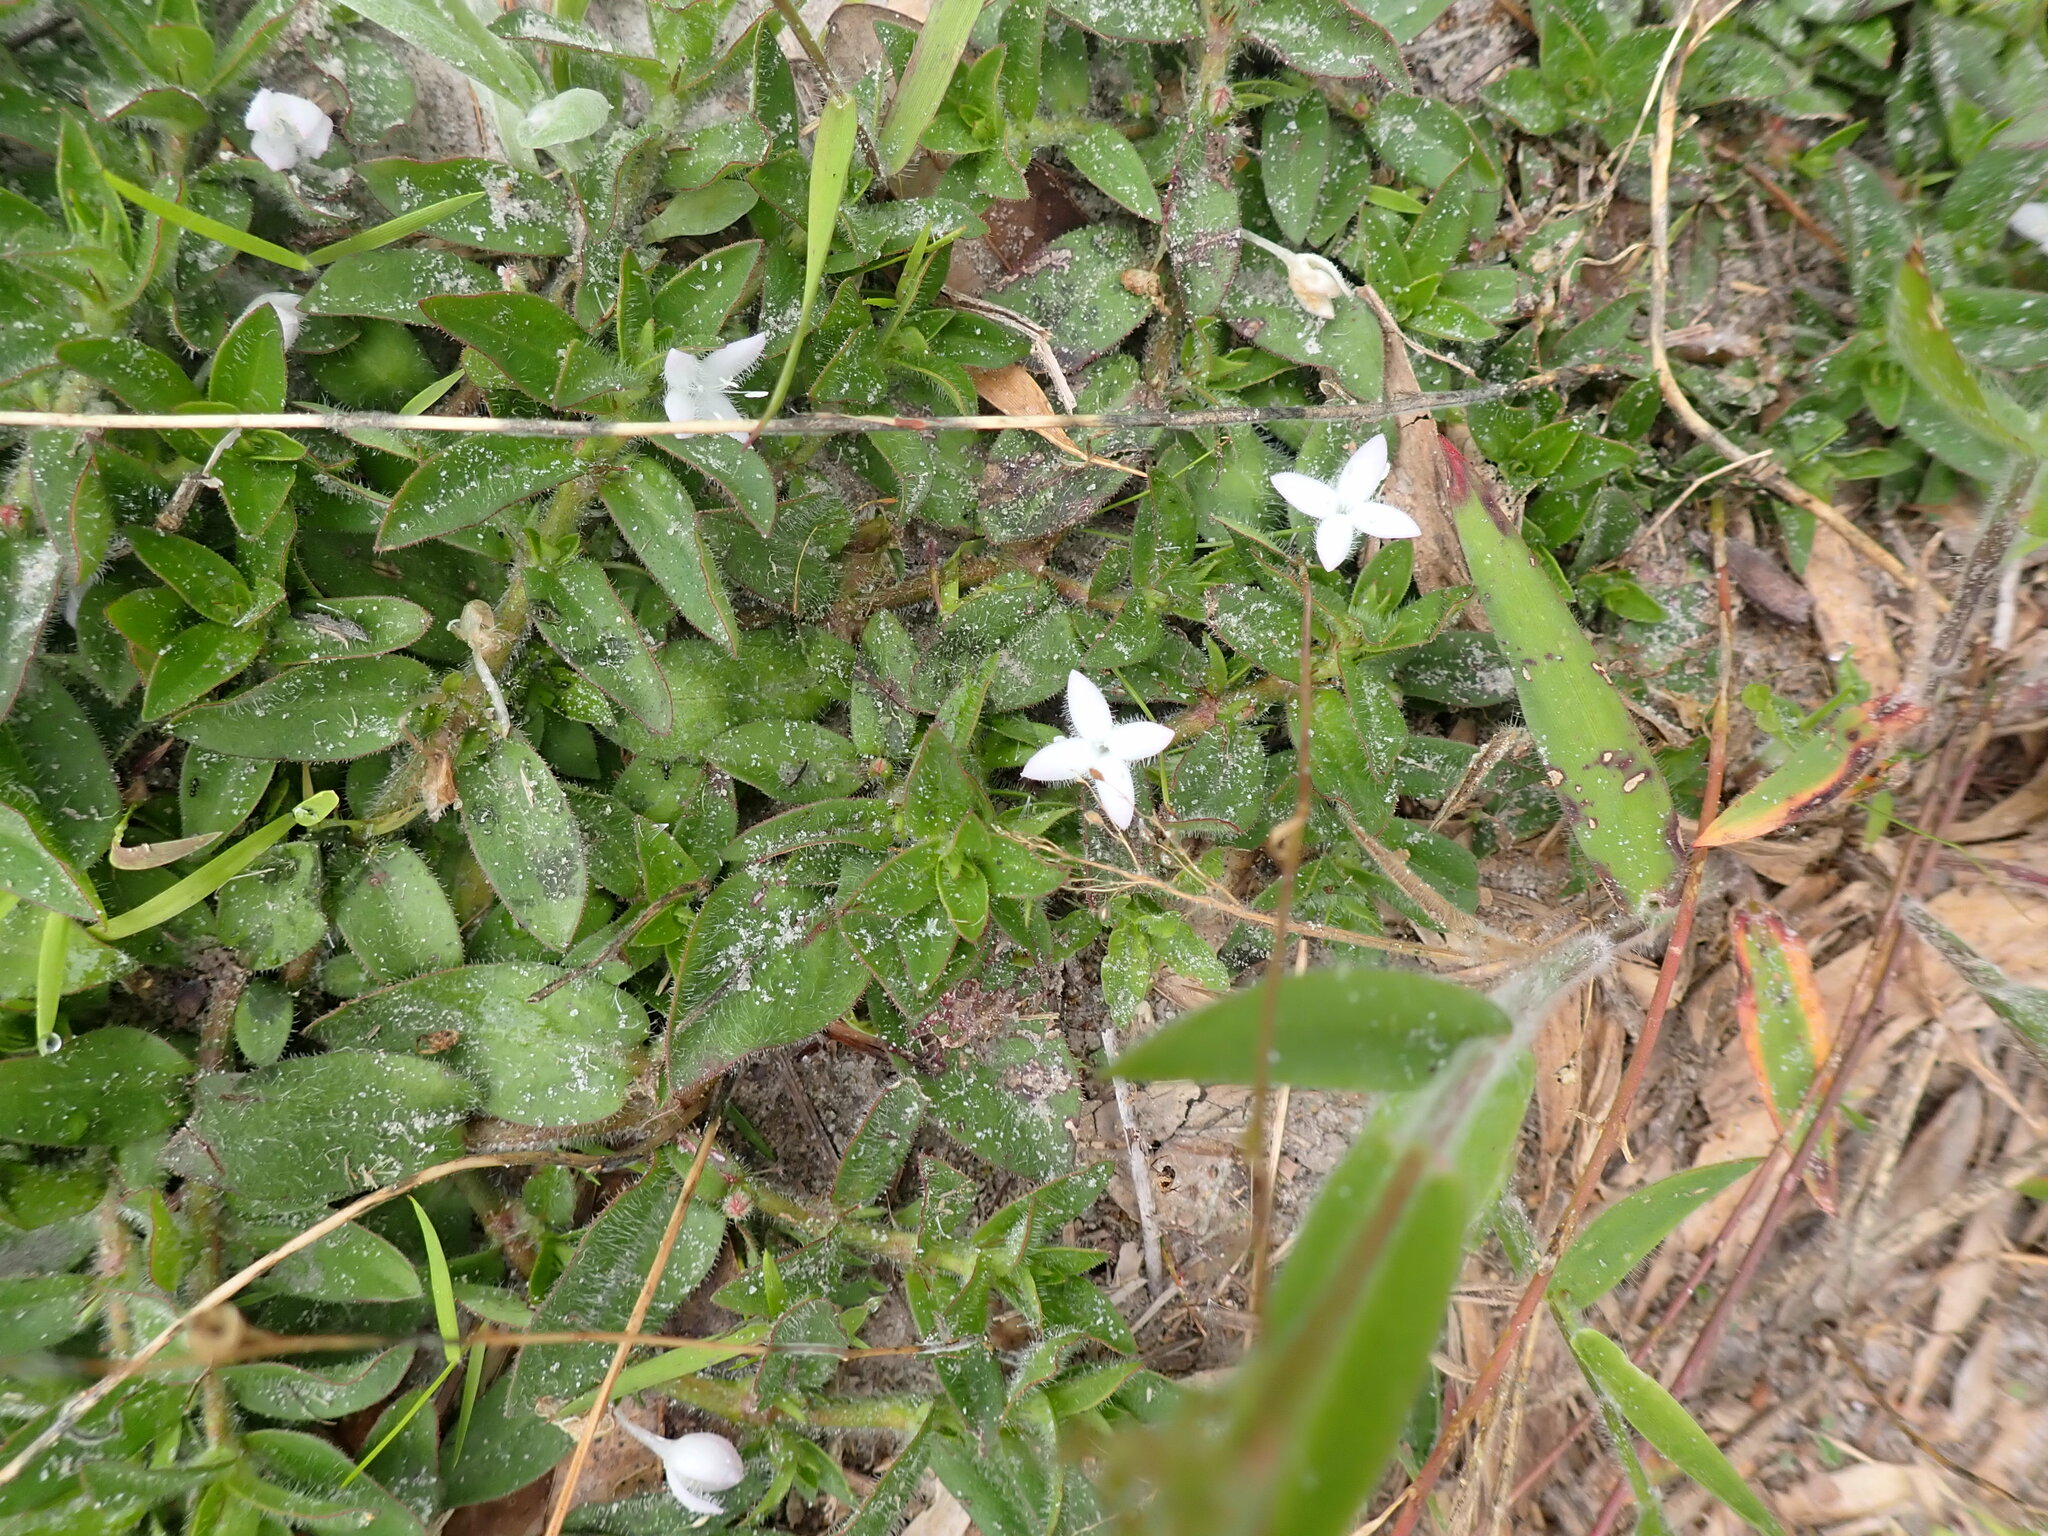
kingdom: Plantae
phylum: Tracheophyta
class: Magnoliopsida
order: Gentianales
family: Rubiaceae
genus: Diodia
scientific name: Diodia virginiana
